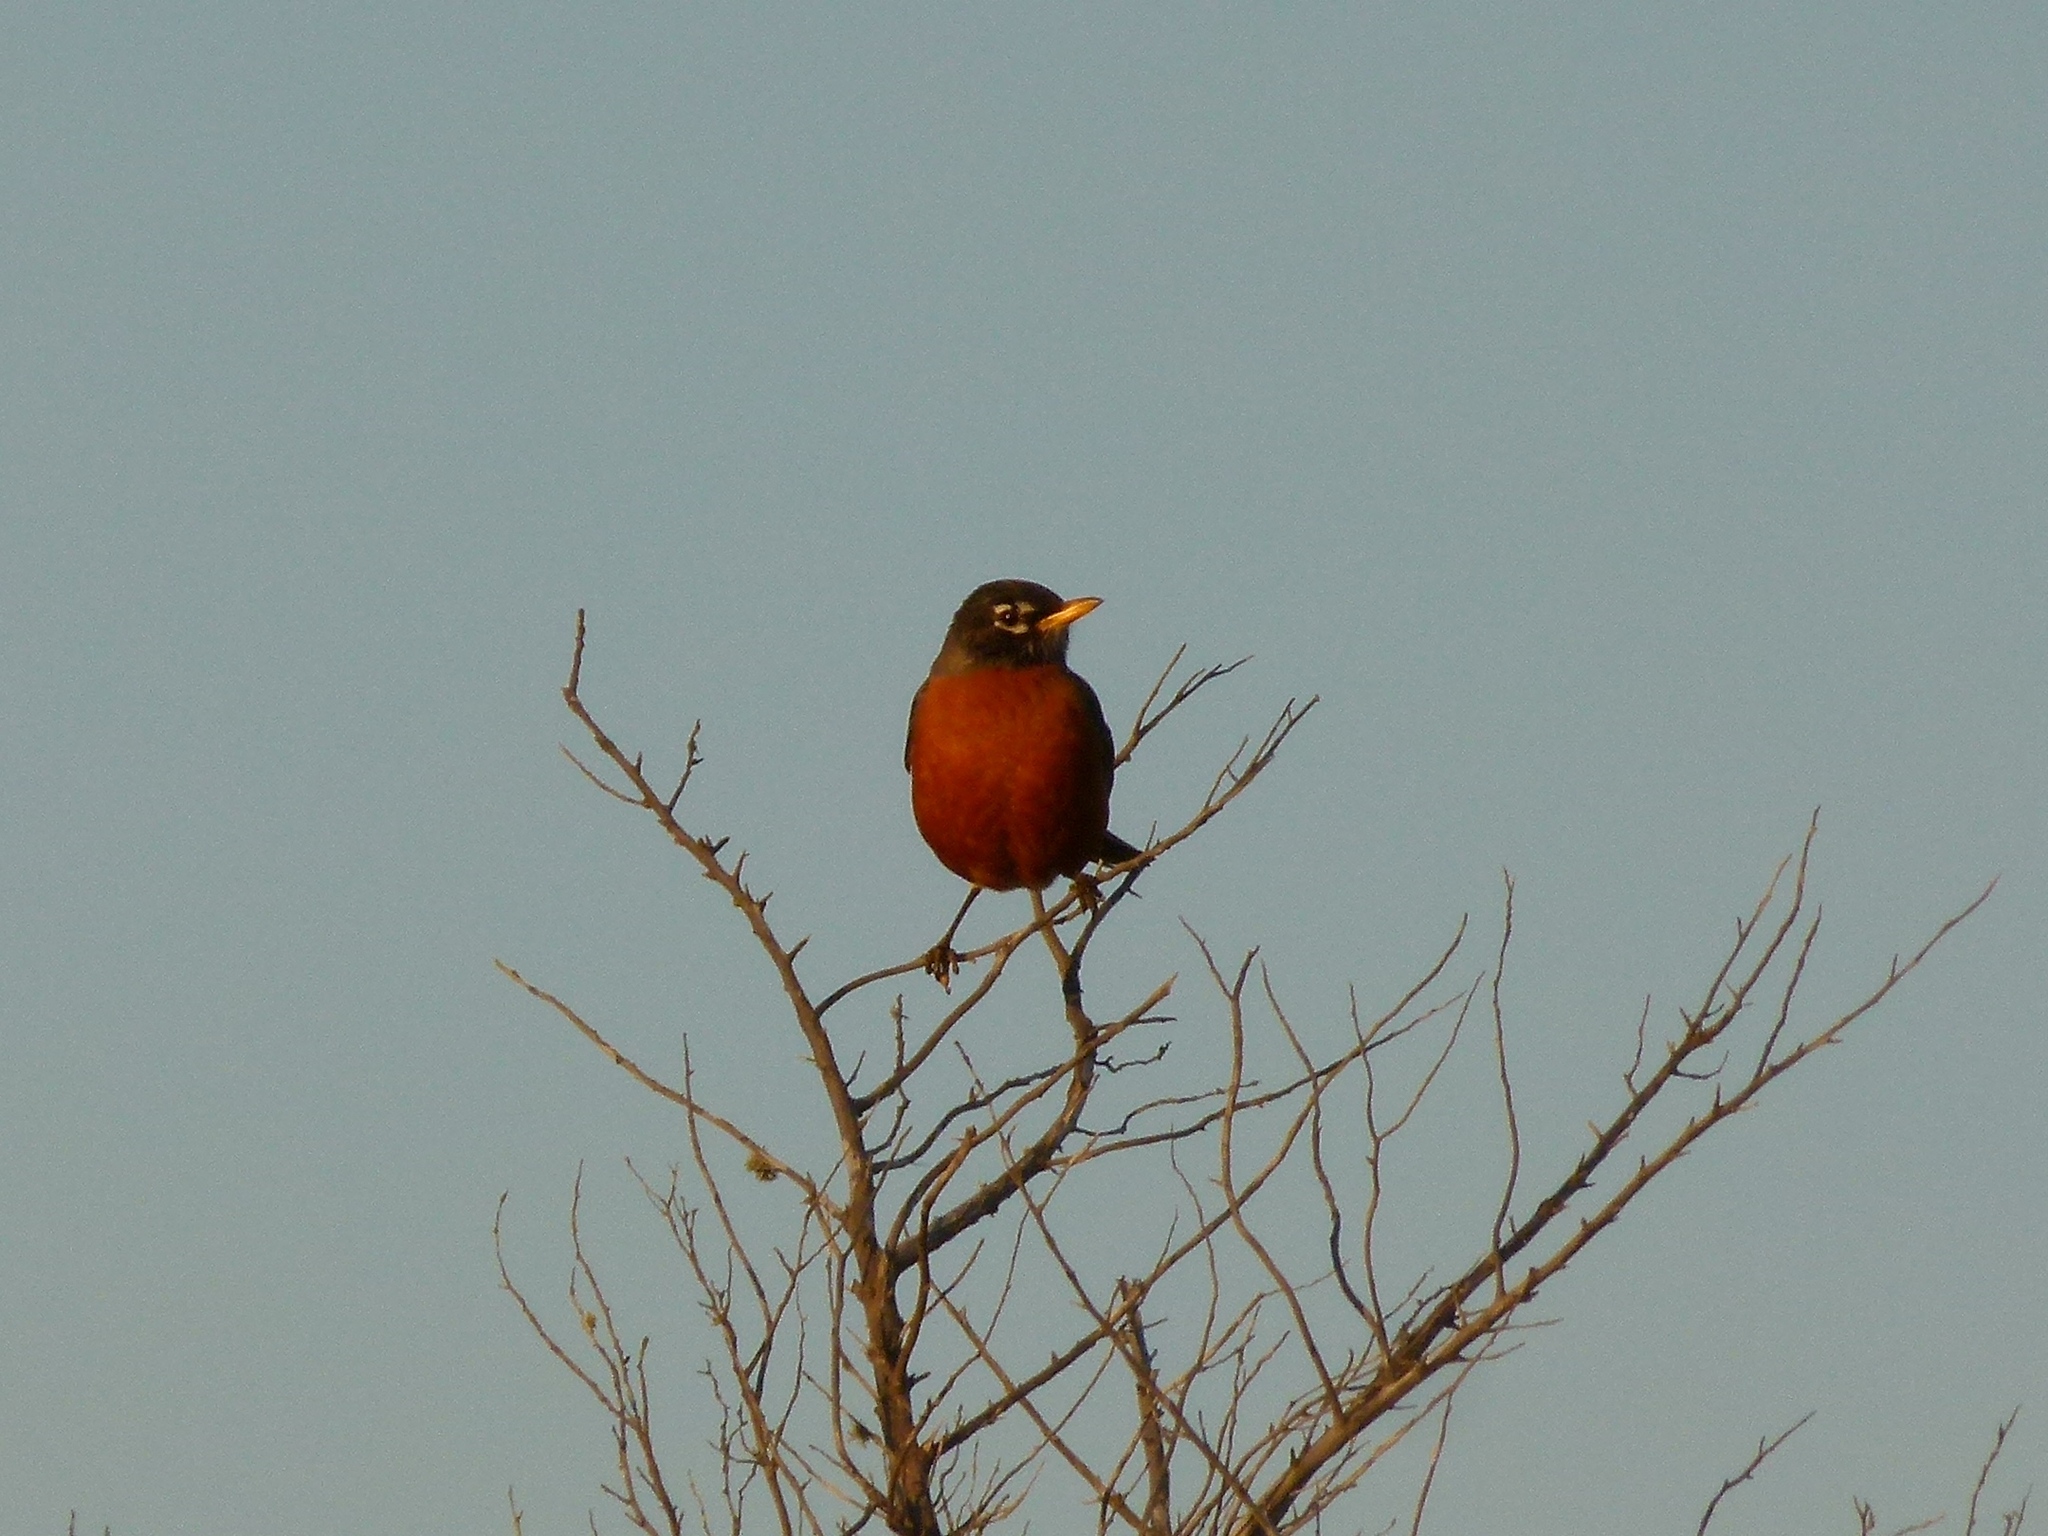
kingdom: Animalia
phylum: Chordata
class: Aves
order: Passeriformes
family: Turdidae
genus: Turdus
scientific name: Turdus migratorius
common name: American robin
